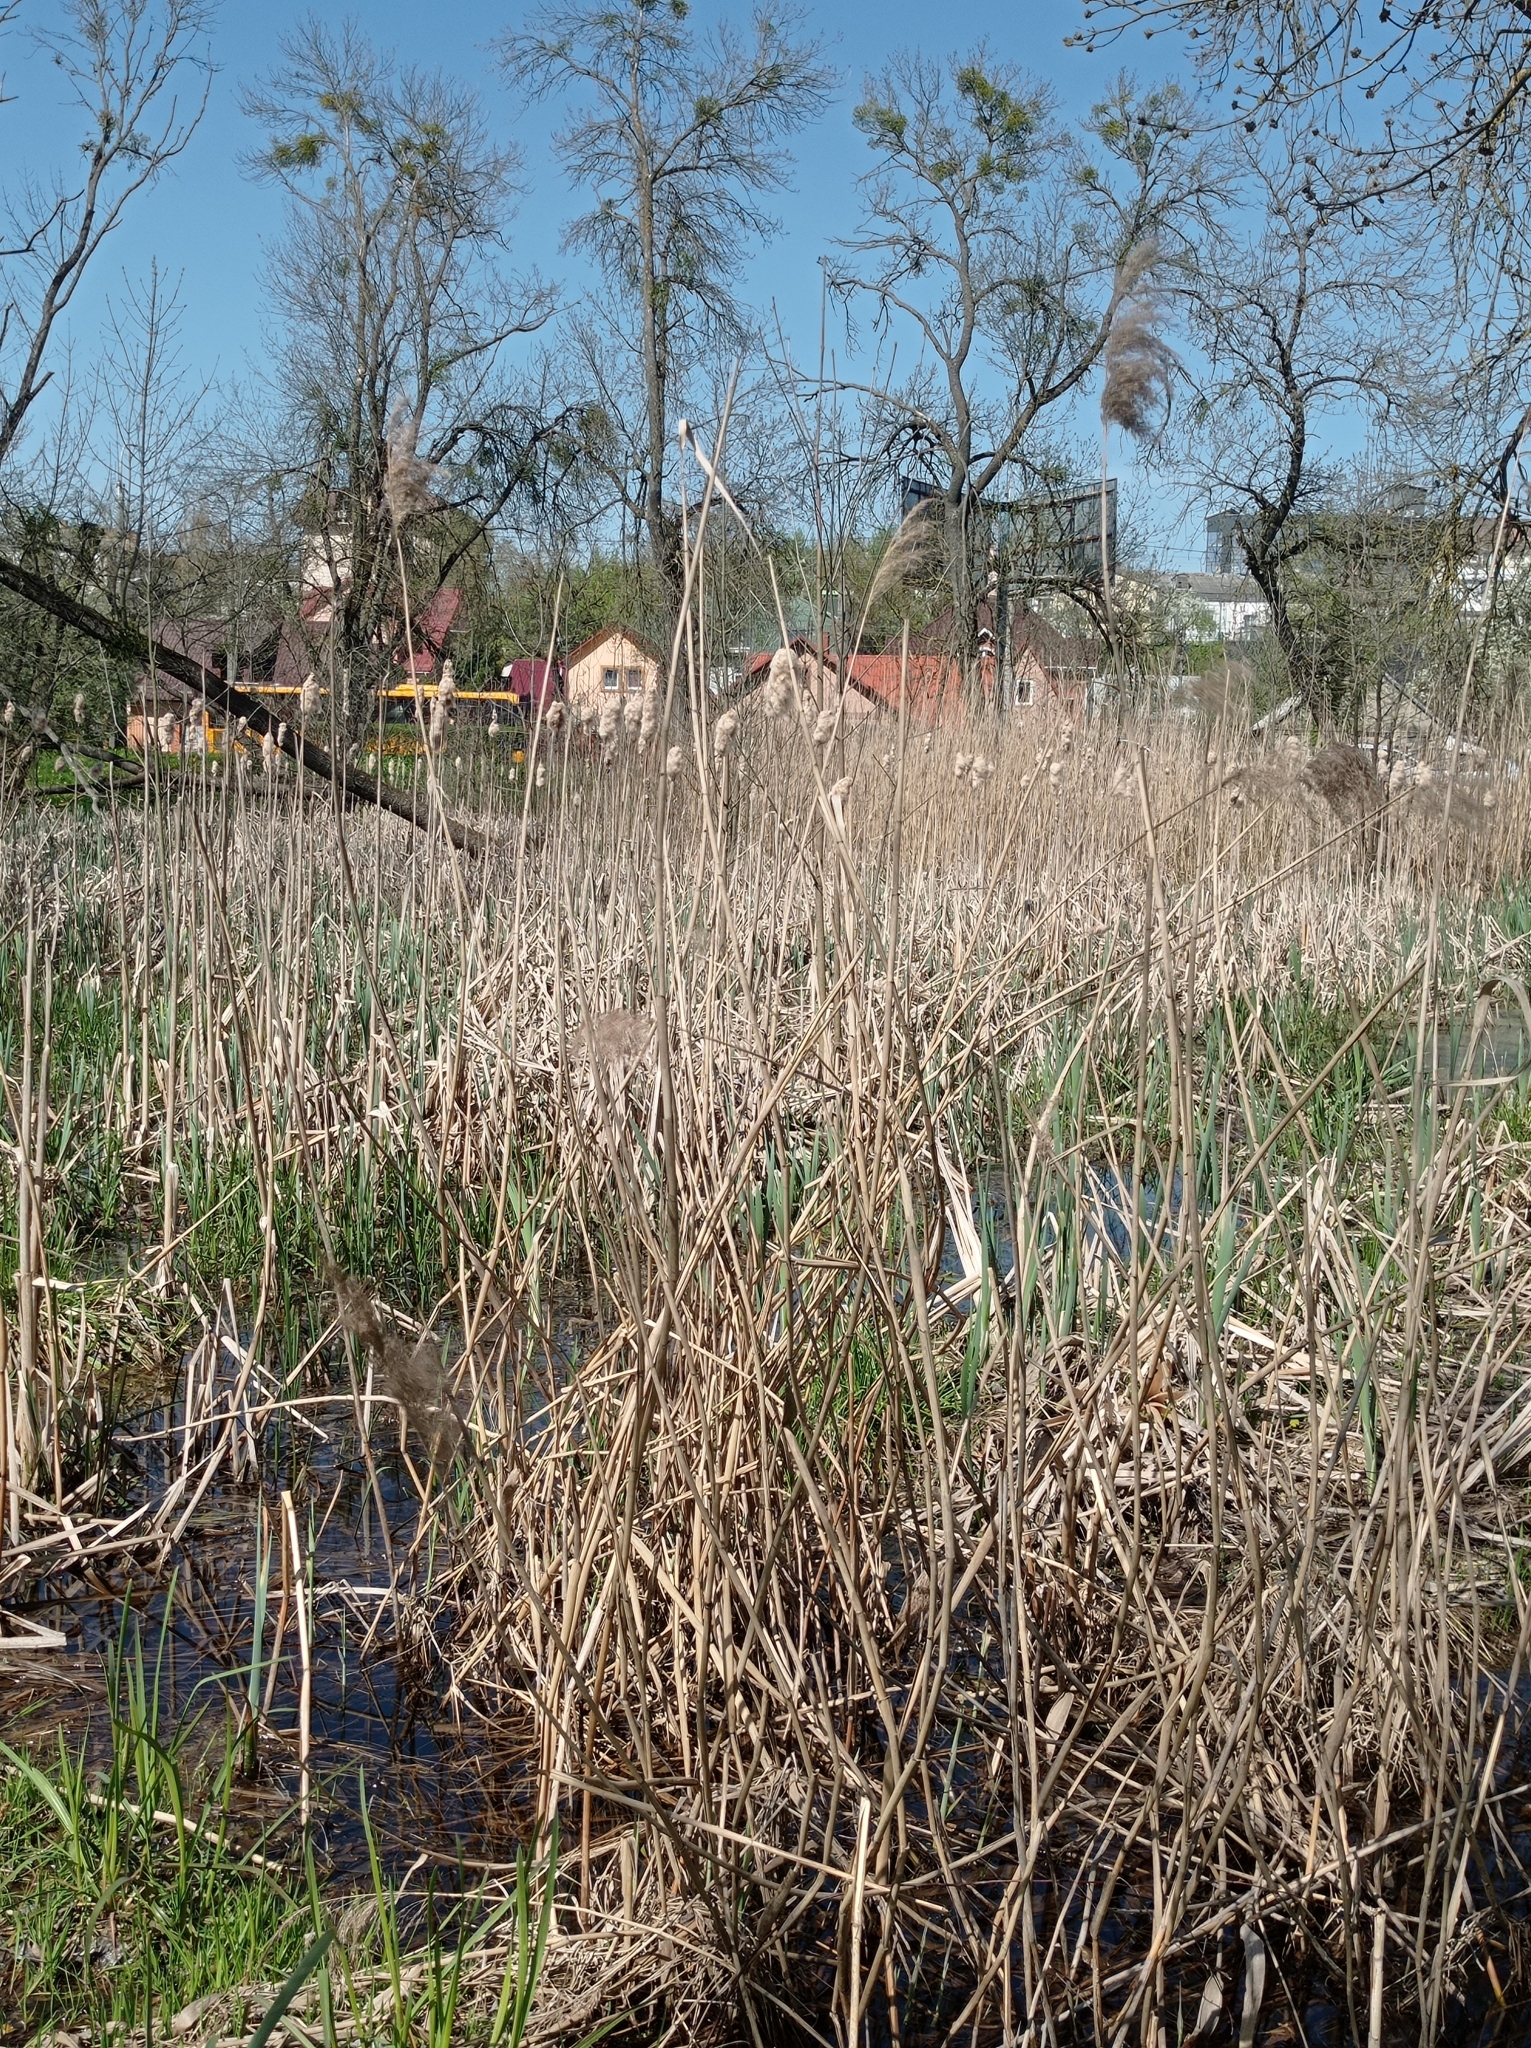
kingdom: Plantae
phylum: Tracheophyta
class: Liliopsida
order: Poales
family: Poaceae
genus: Phragmites
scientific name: Phragmites australis
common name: Common reed
